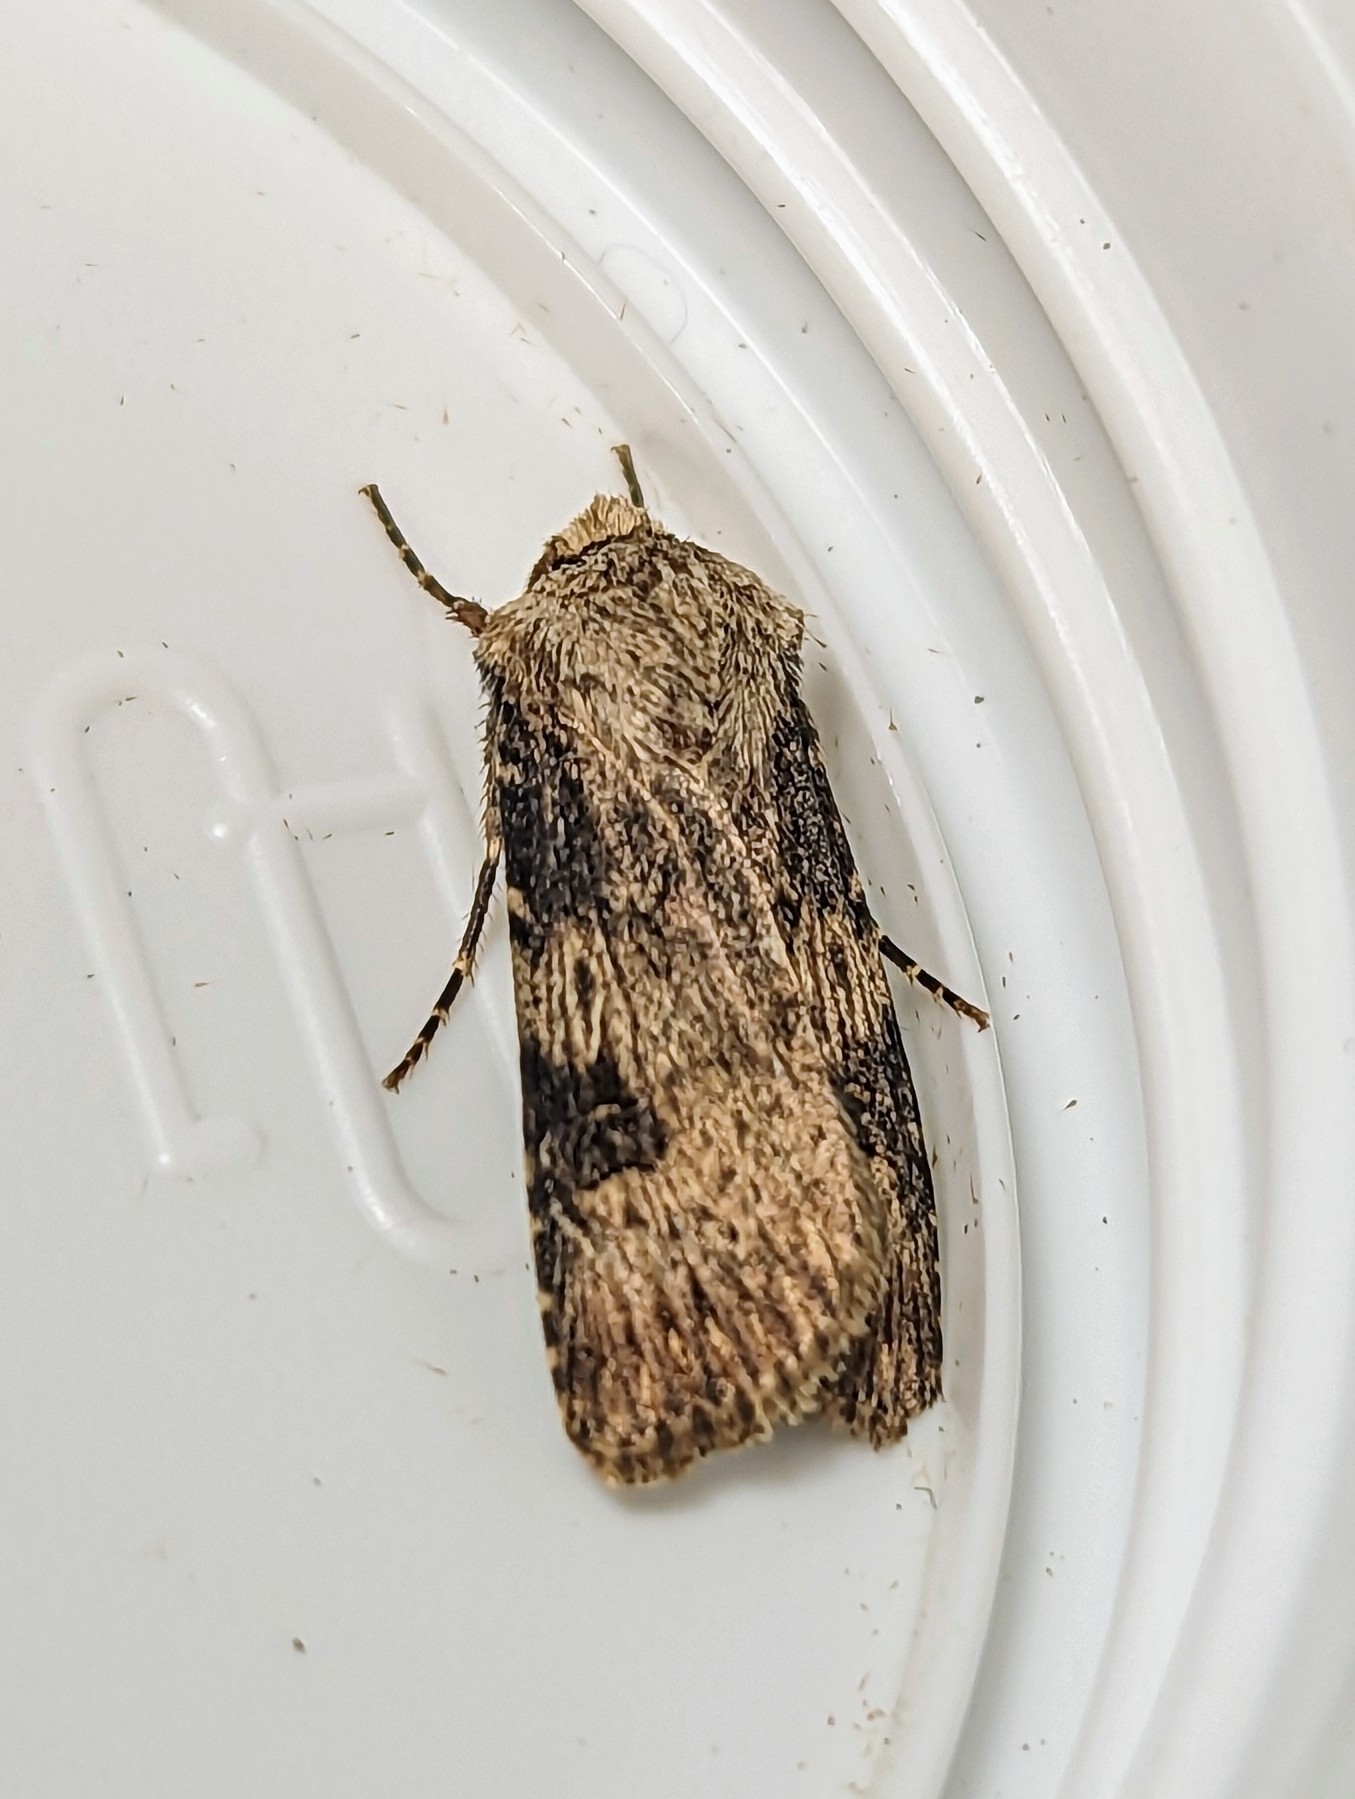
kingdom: Animalia
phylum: Arthropoda
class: Insecta
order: Lepidoptera
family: Noctuidae
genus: Agrotis
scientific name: Agrotis puta
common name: Shuttle-shaped dart
